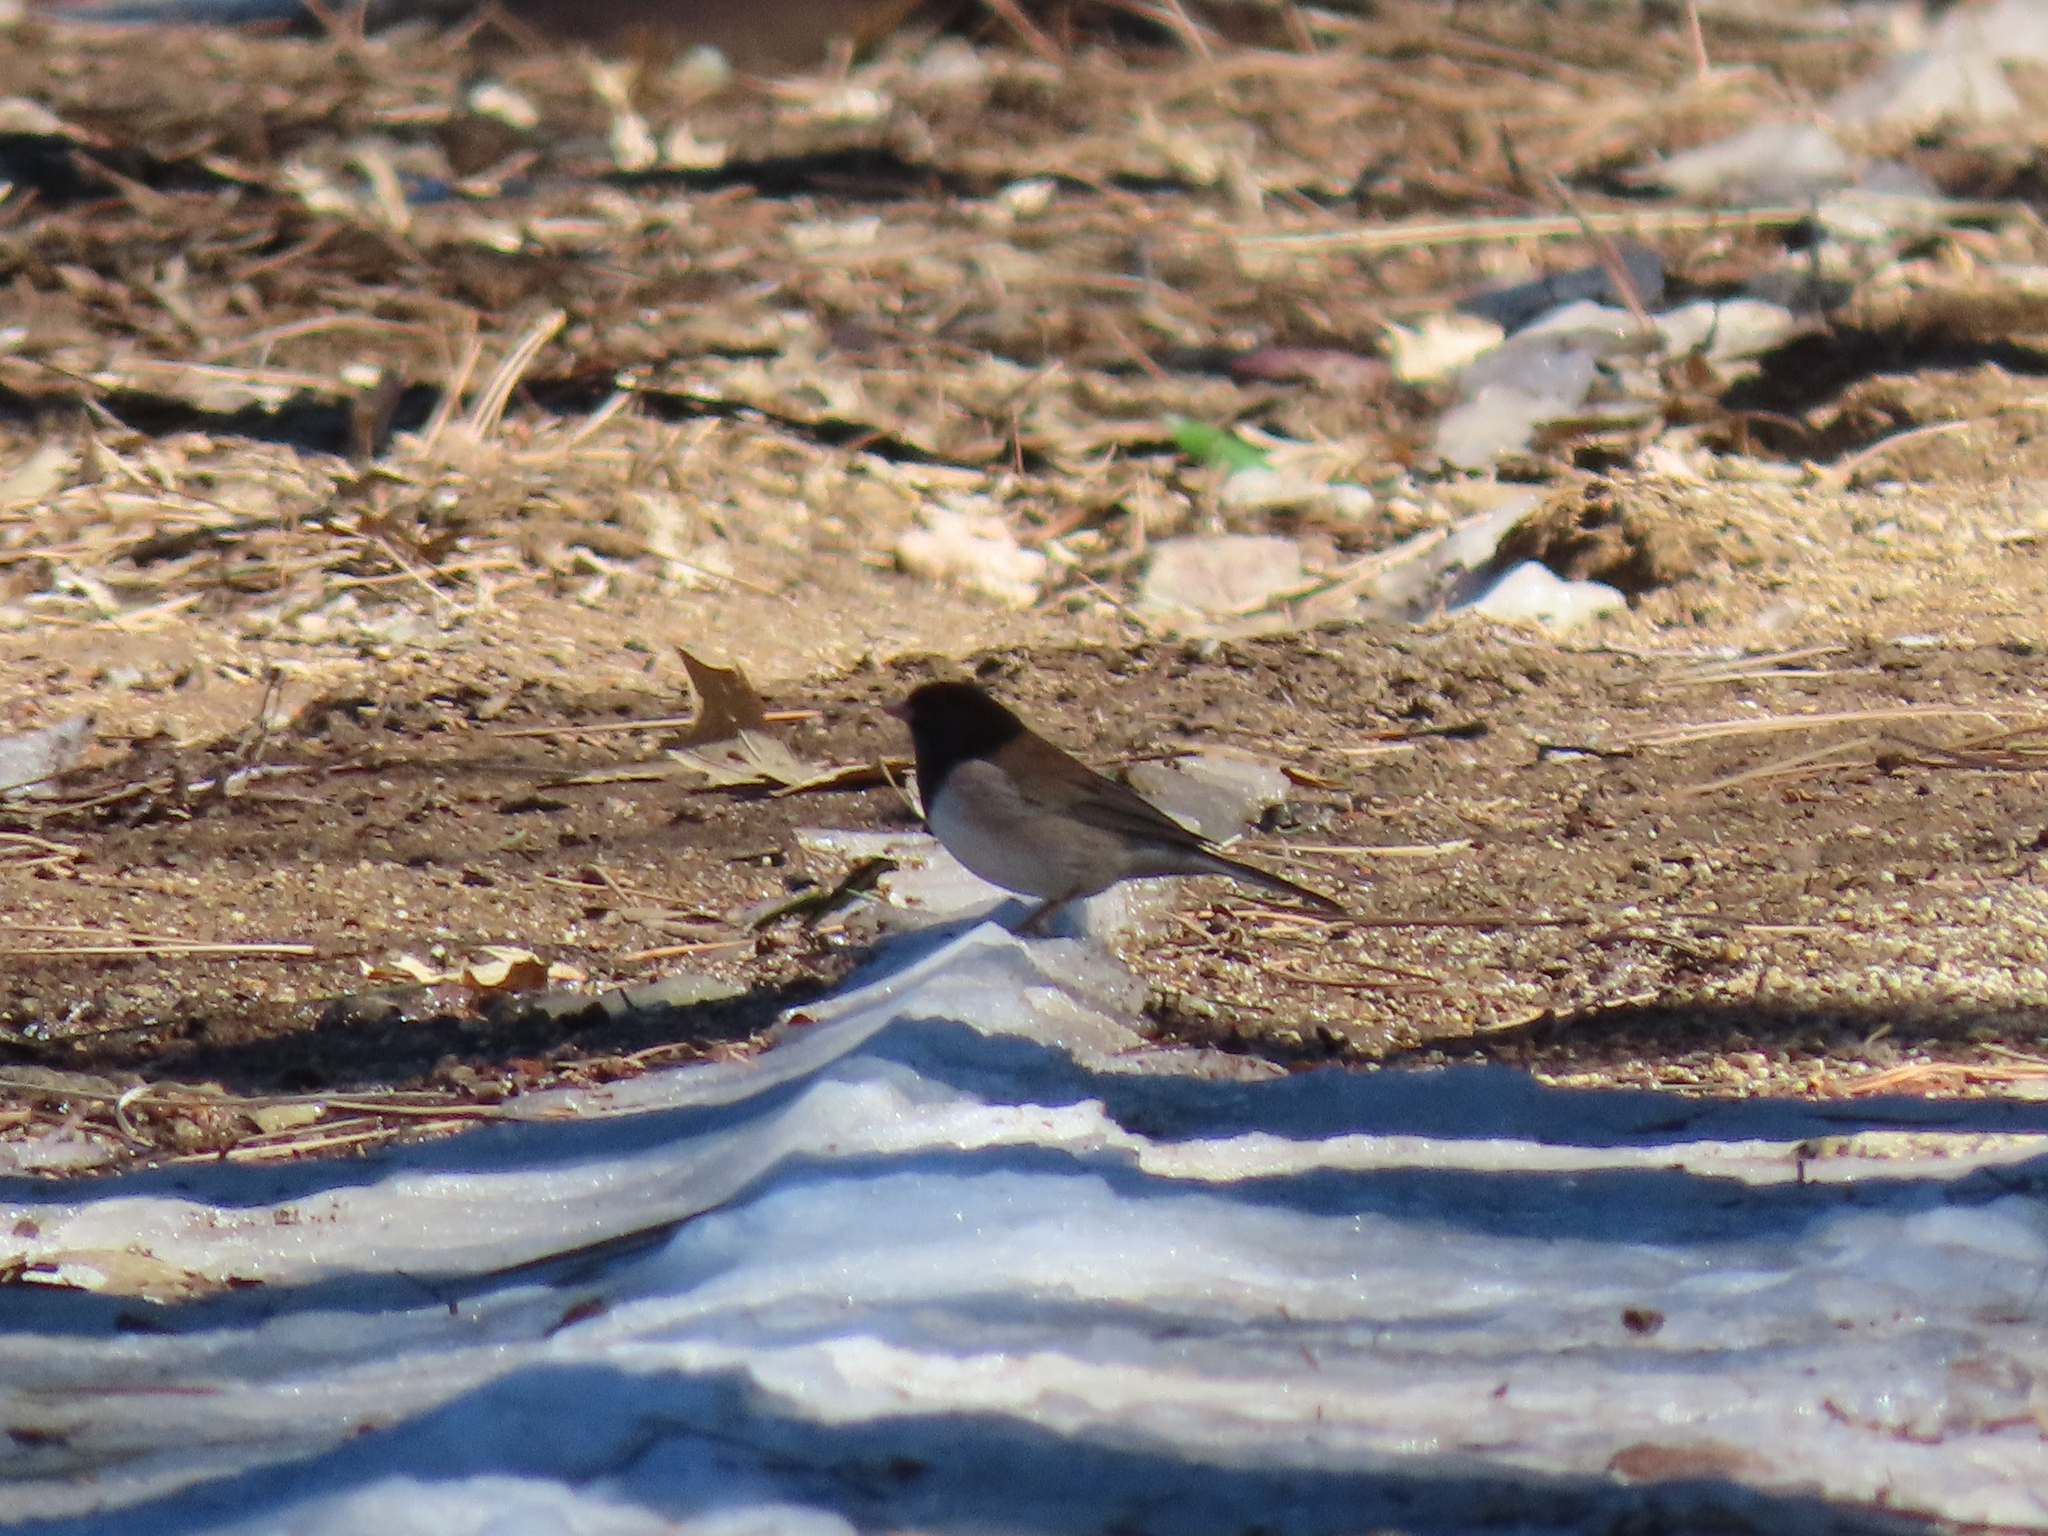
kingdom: Animalia
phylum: Chordata
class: Aves
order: Passeriformes
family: Passerellidae
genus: Junco
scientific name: Junco hyemalis
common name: Dark-eyed junco
